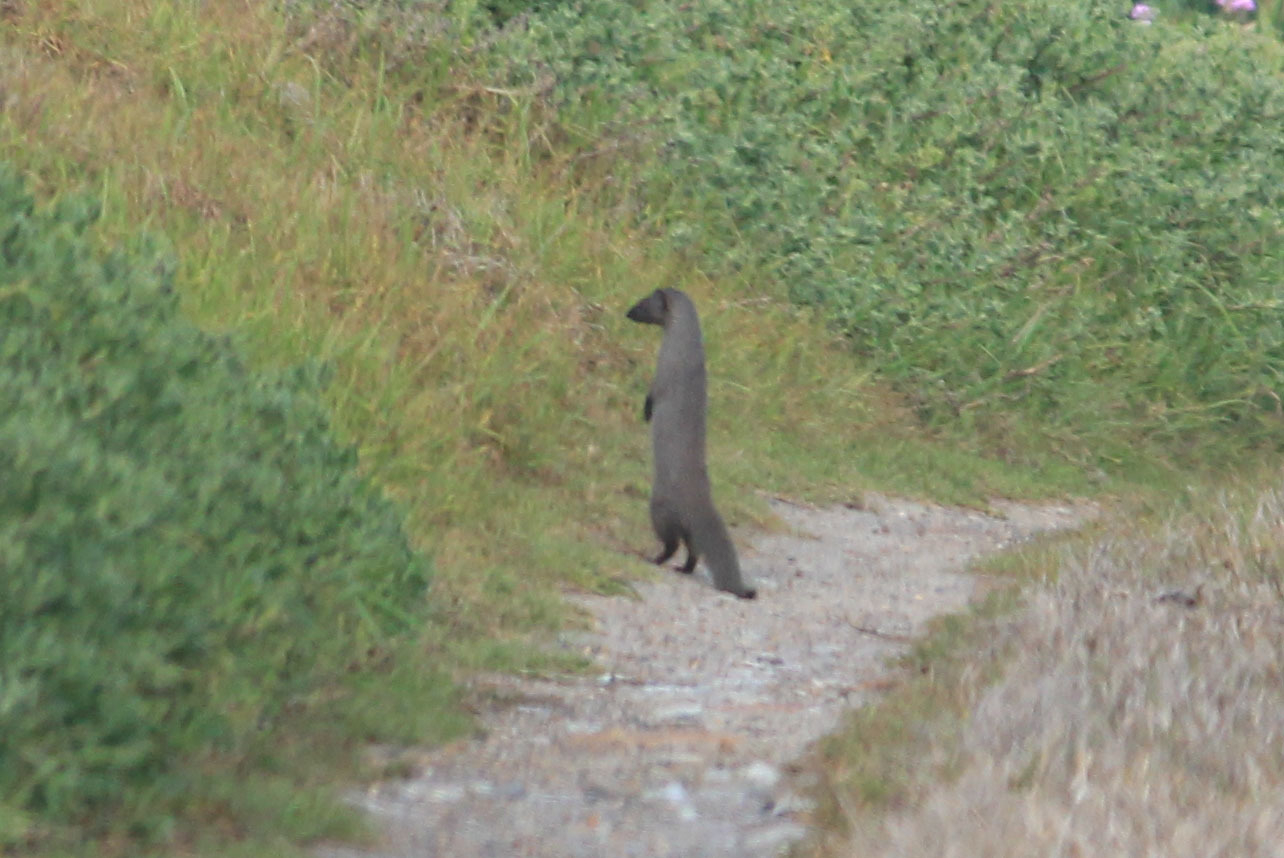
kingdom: Animalia
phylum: Chordata
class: Mammalia
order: Carnivora
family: Herpestidae
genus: Galerella
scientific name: Galerella pulverulenta
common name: Cape gray mongoose
